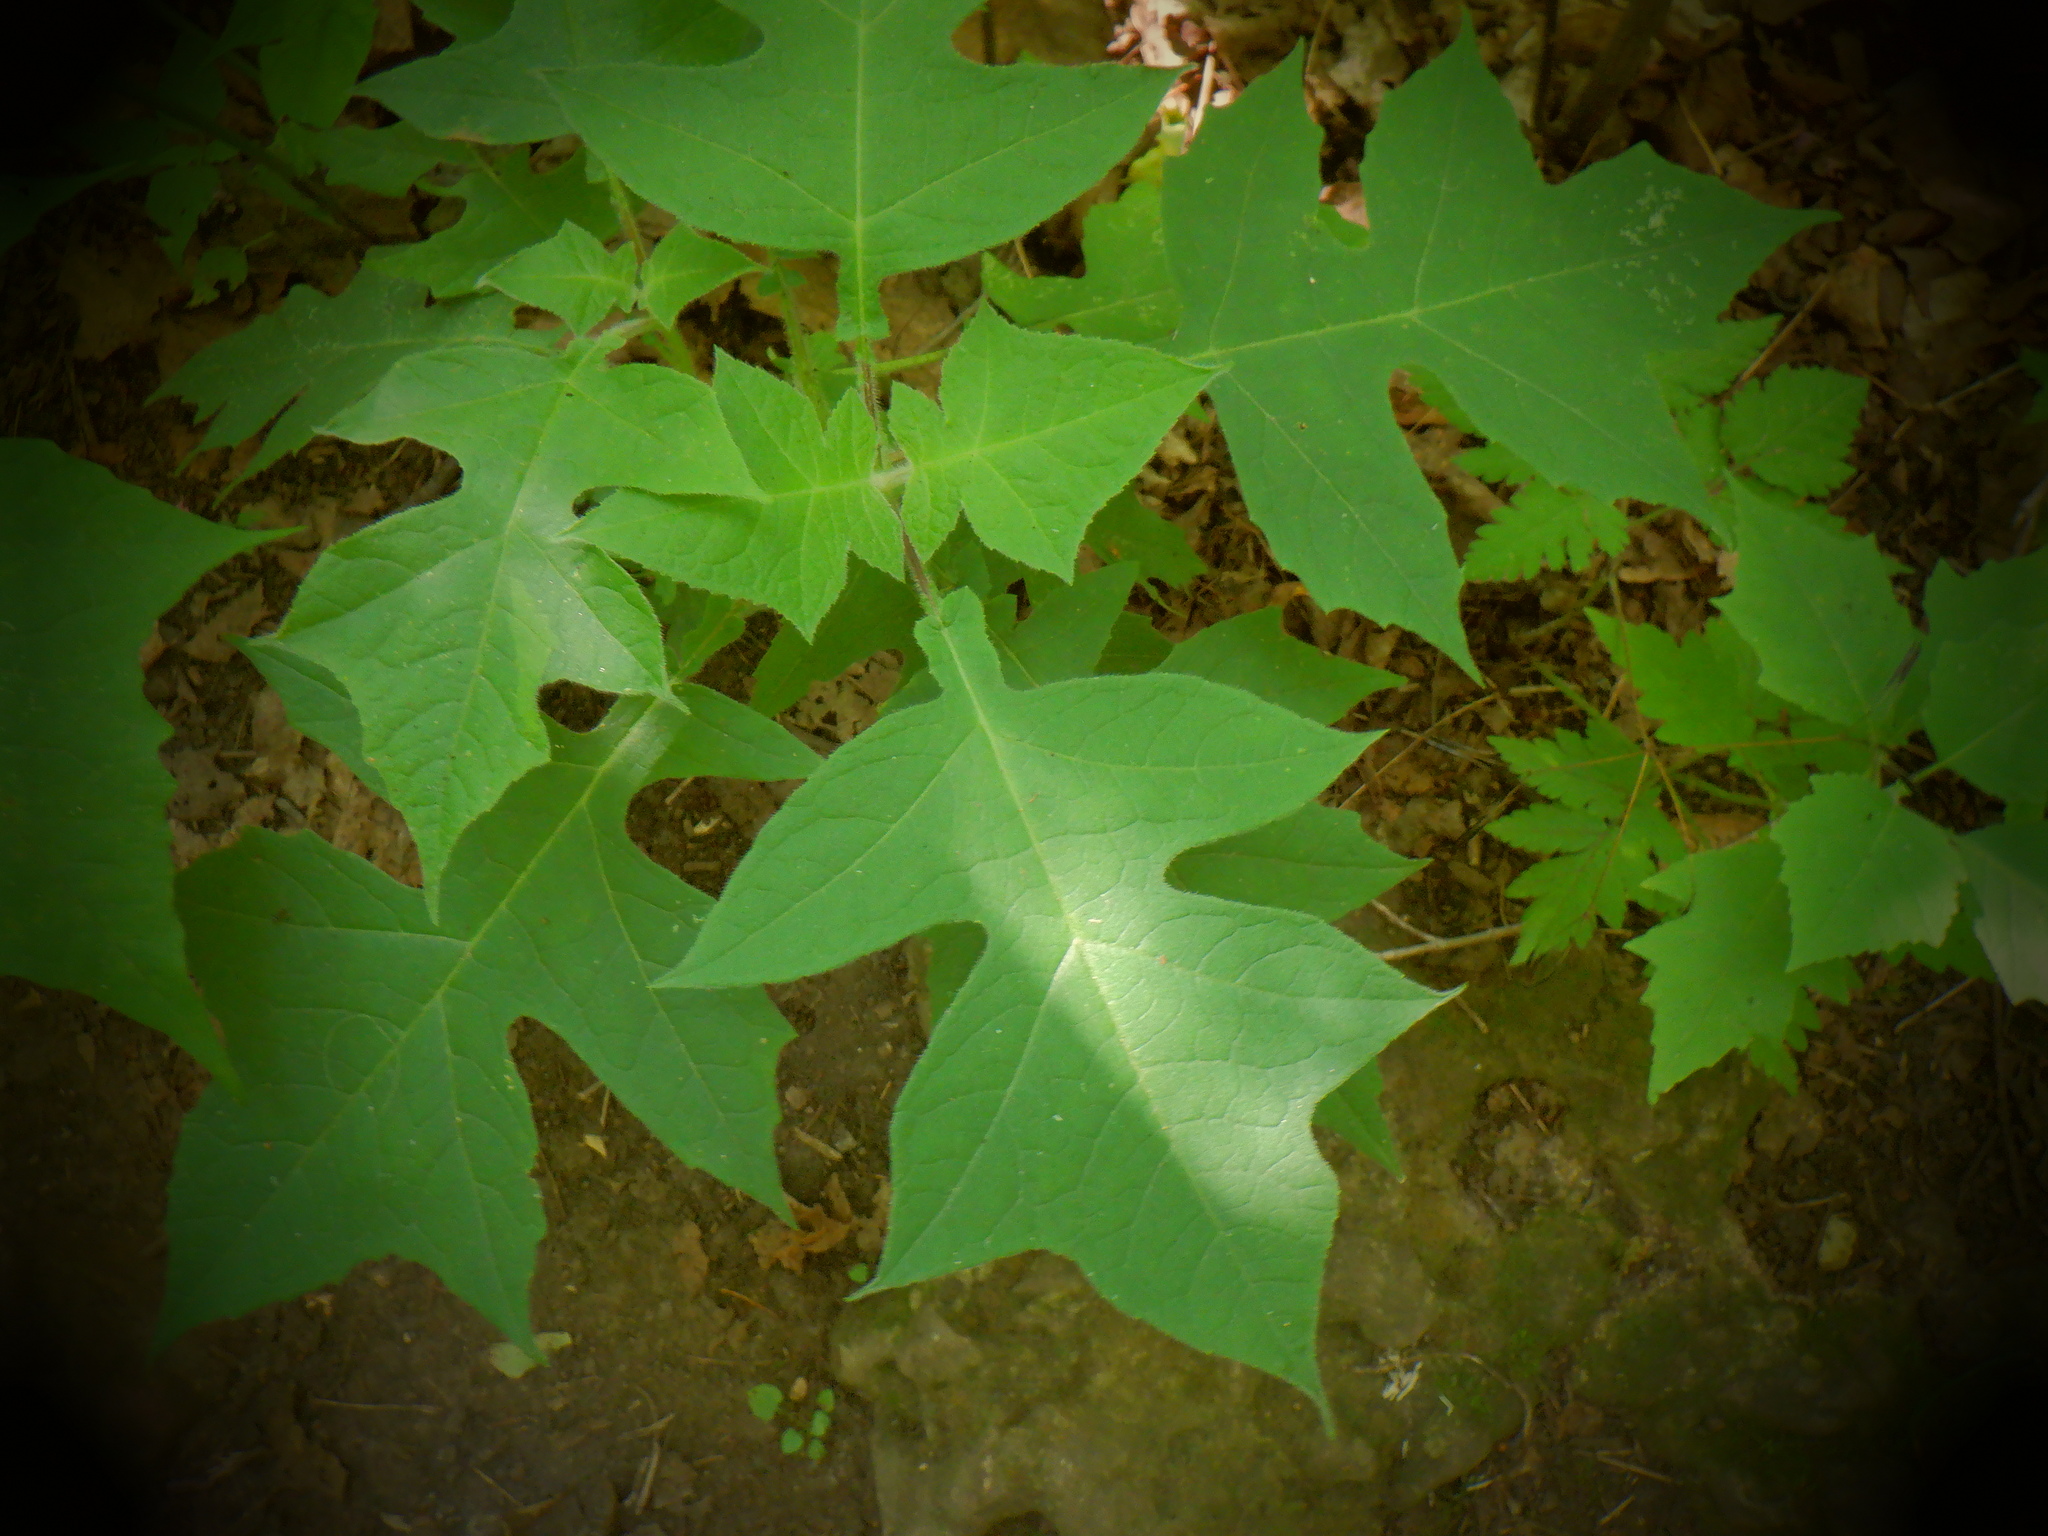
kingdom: Plantae
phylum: Tracheophyta
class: Magnoliopsida
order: Asterales
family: Asteraceae
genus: Polymnia
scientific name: Polymnia canadensis
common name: Pale-flowered leafcup
